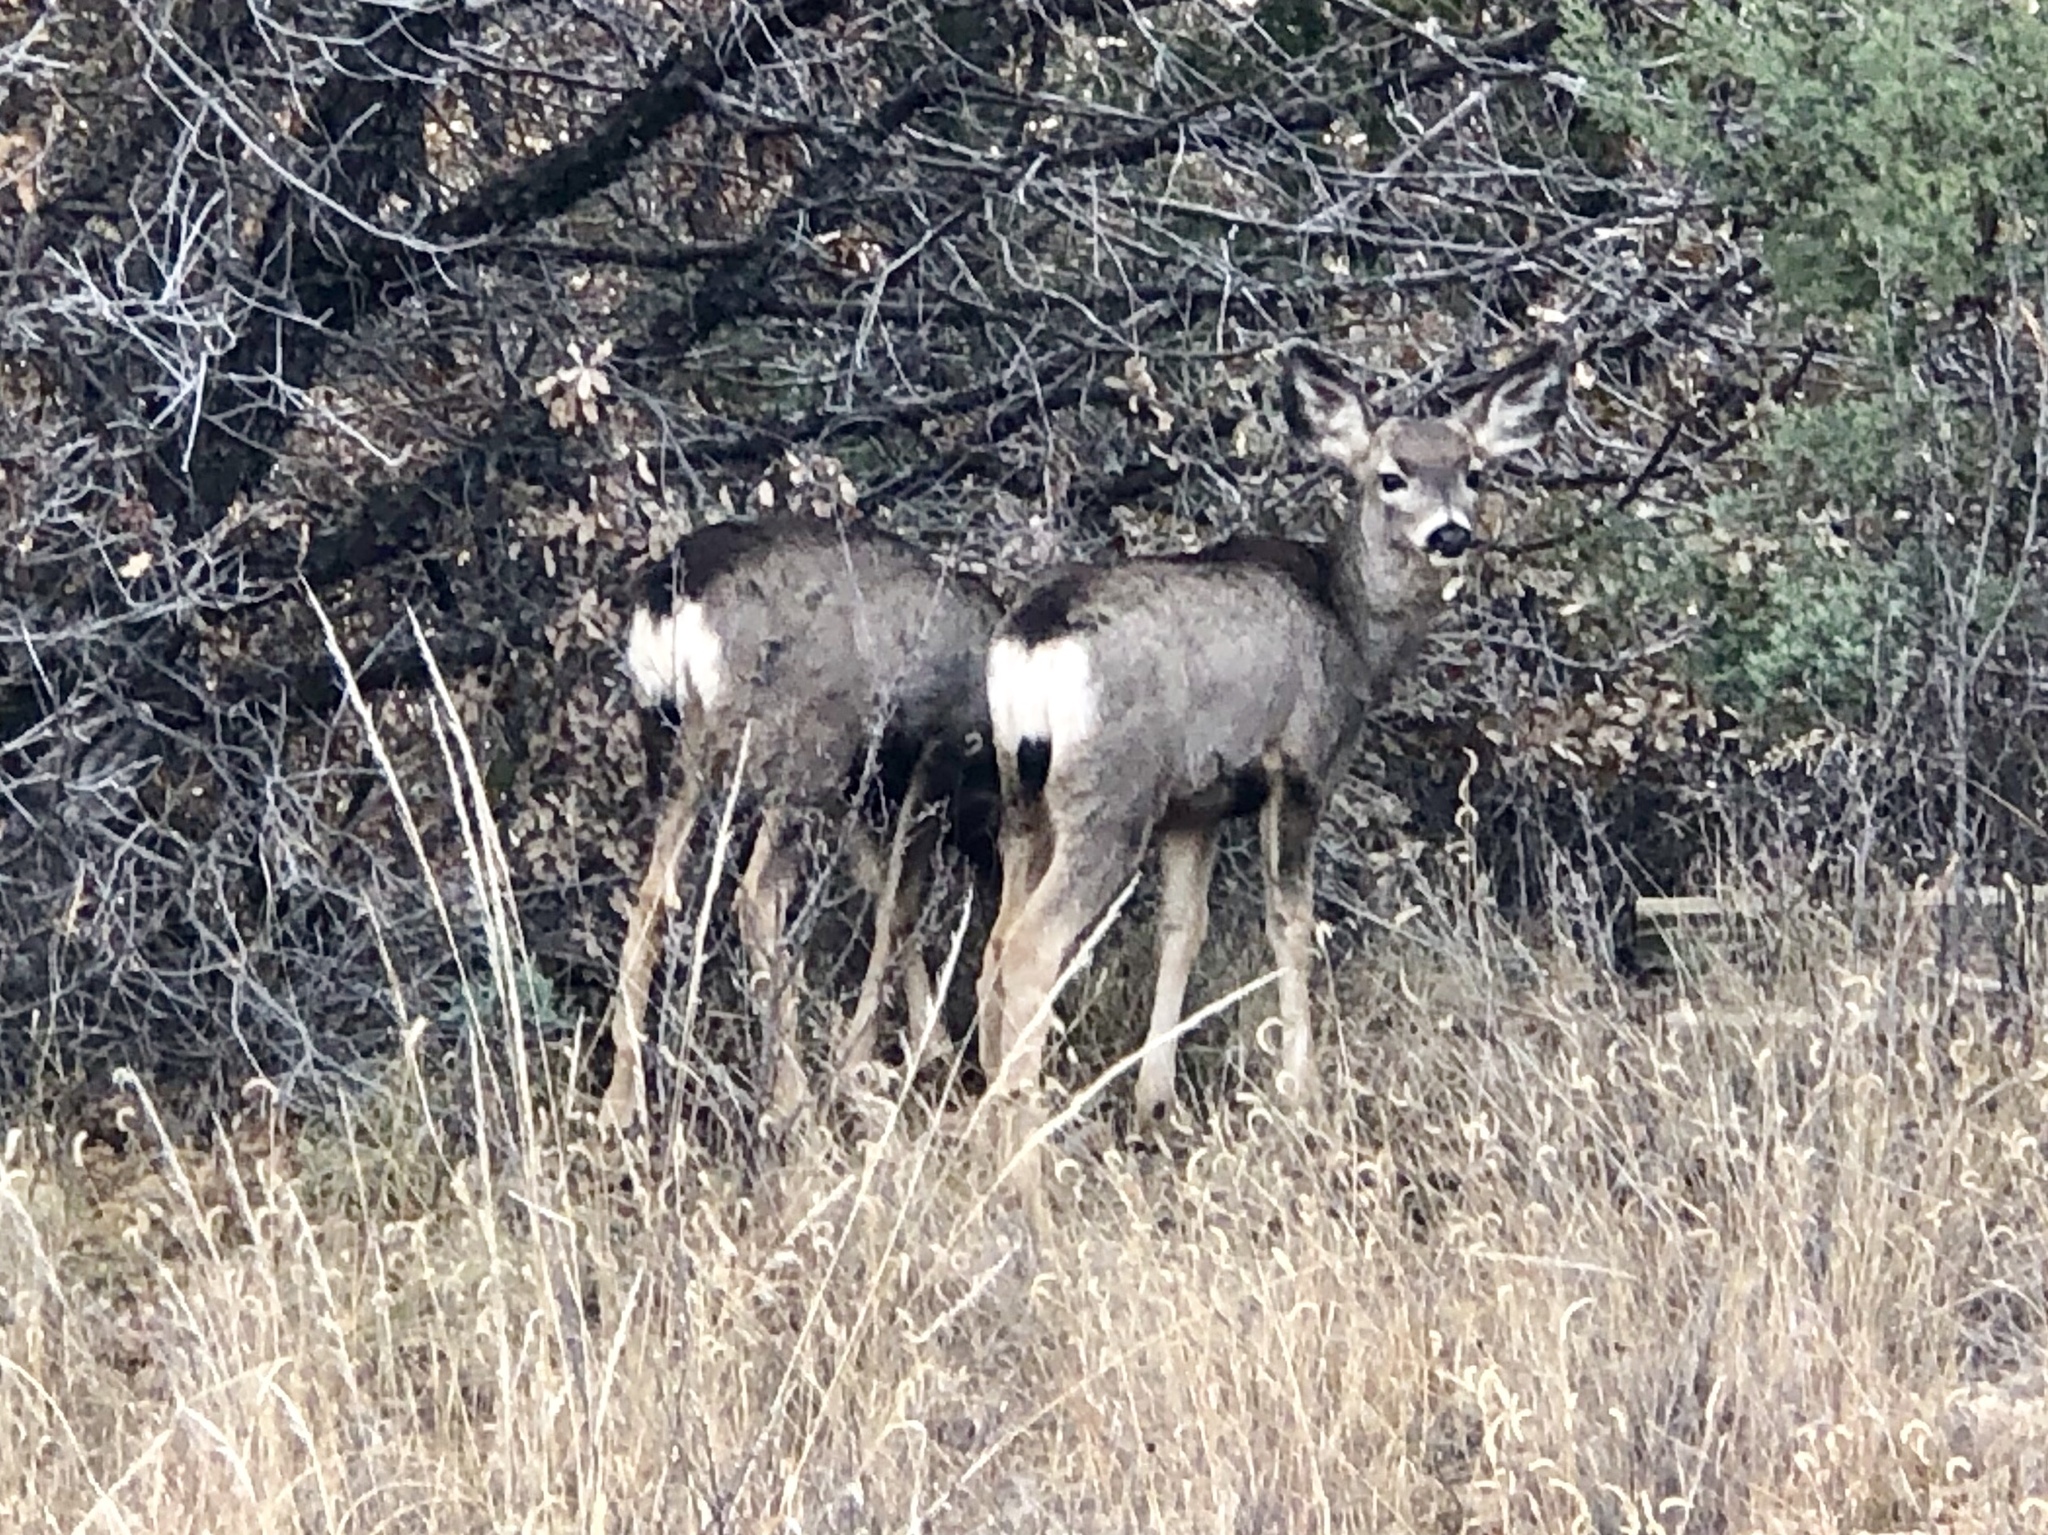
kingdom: Animalia
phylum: Chordata
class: Mammalia
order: Artiodactyla
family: Cervidae
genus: Odocoileus
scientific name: Odocoileus hemionus
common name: Mule deer
